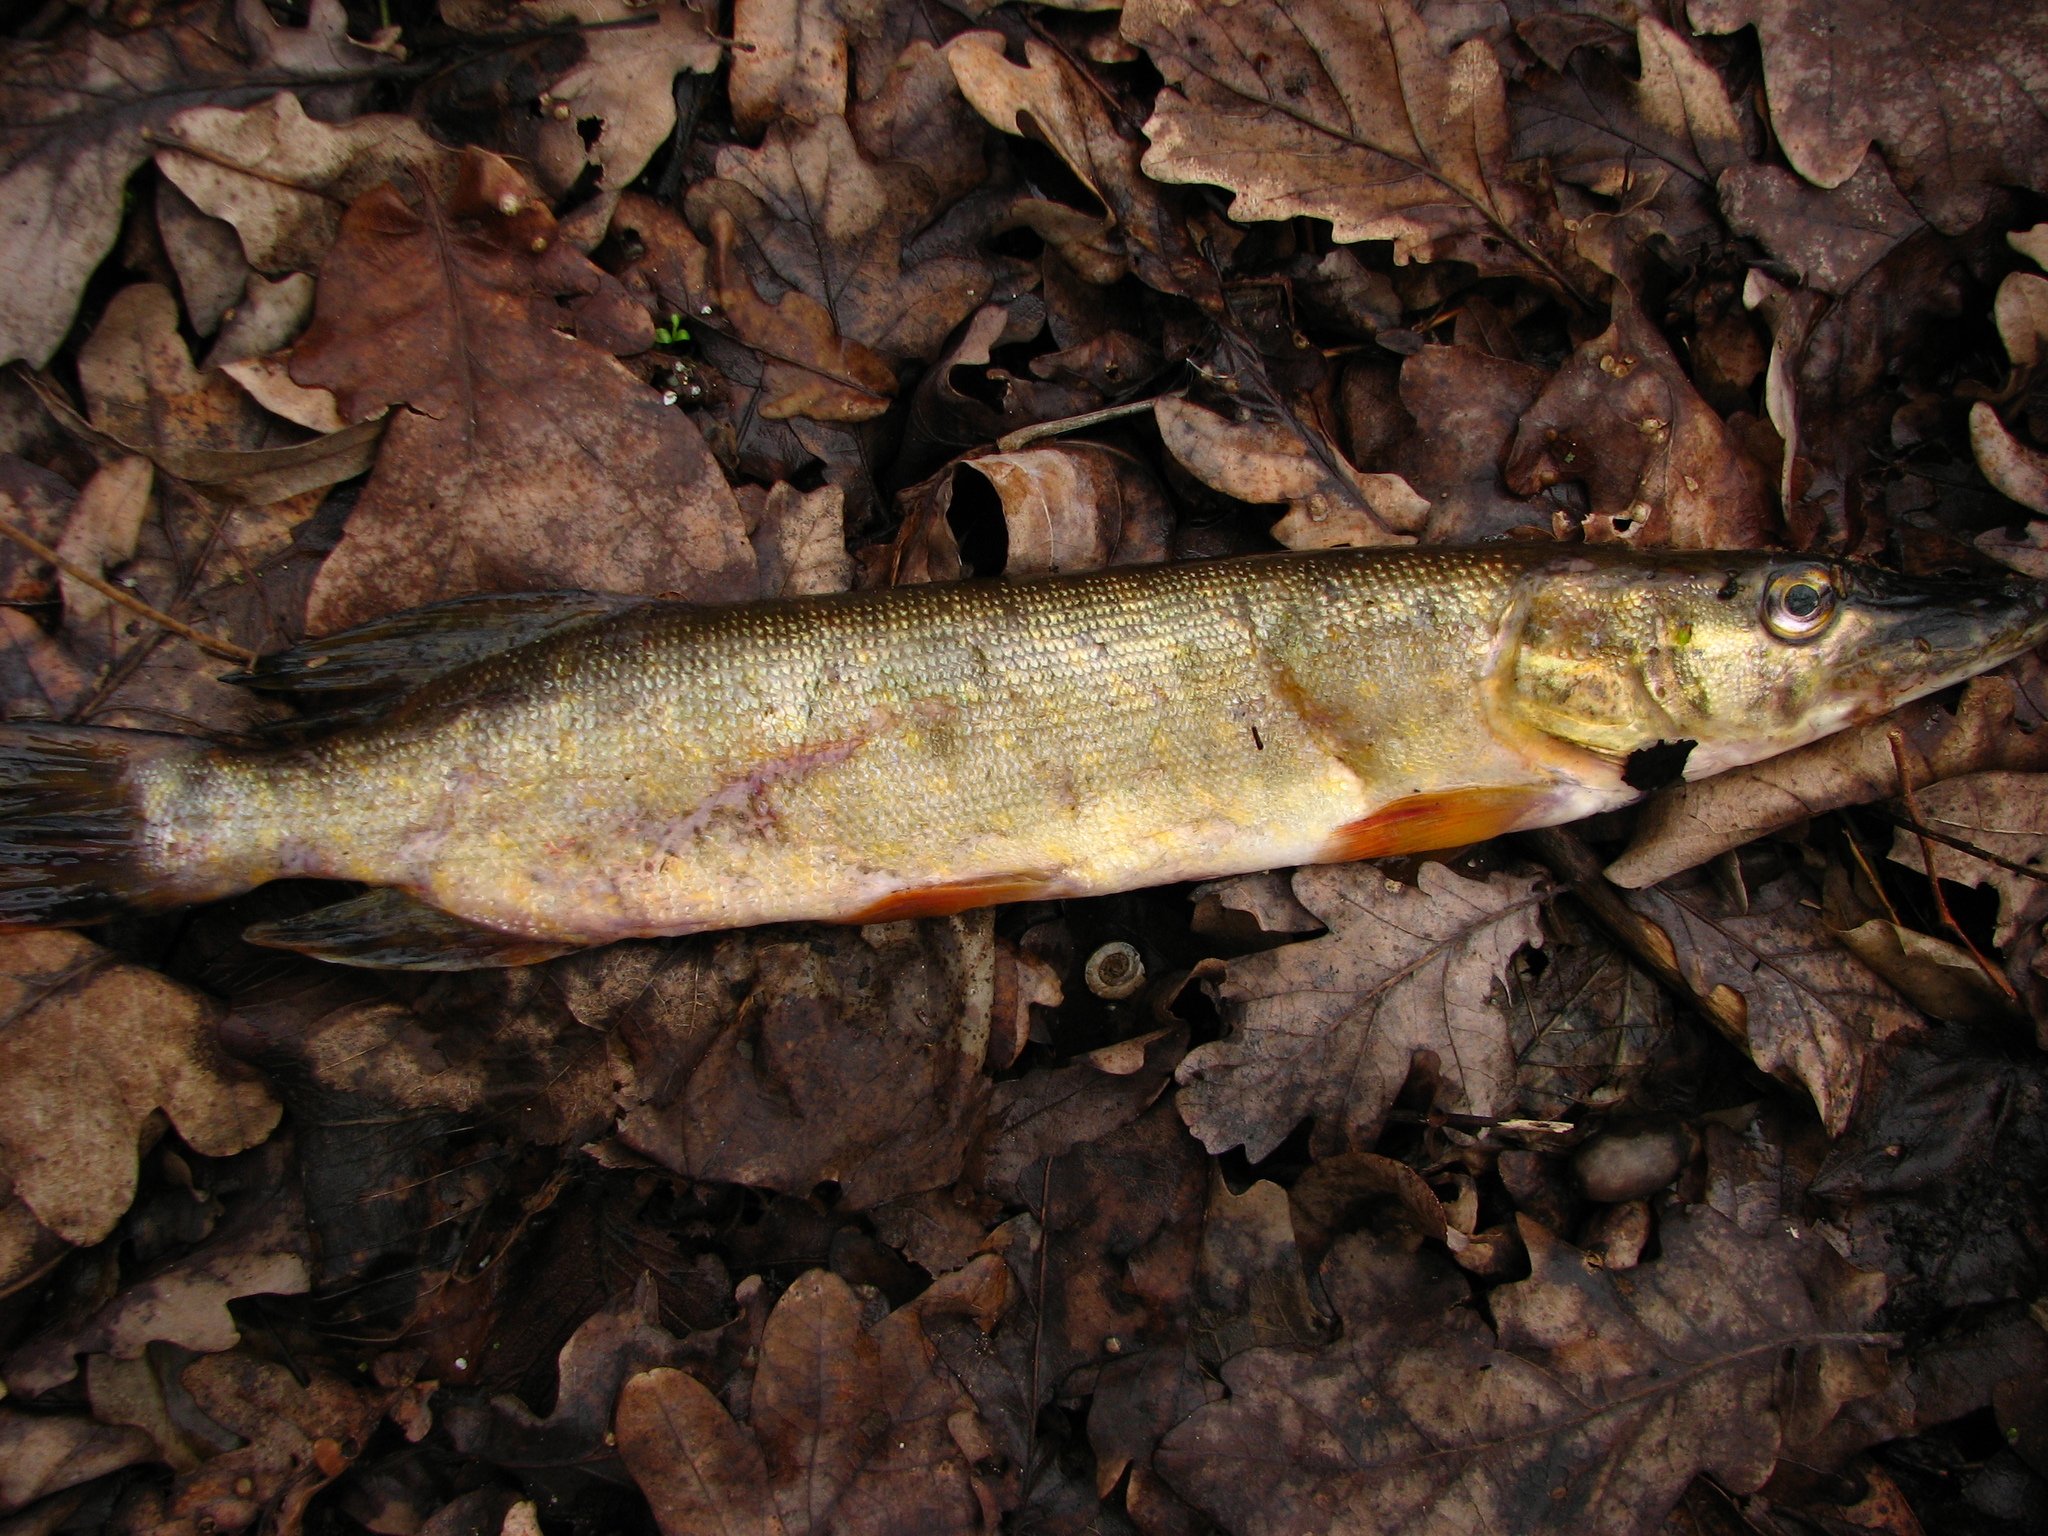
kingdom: Animalia
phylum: Chordata
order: Esociformes
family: Esocidae
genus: Esox
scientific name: Esox lucius
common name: Northern pike
